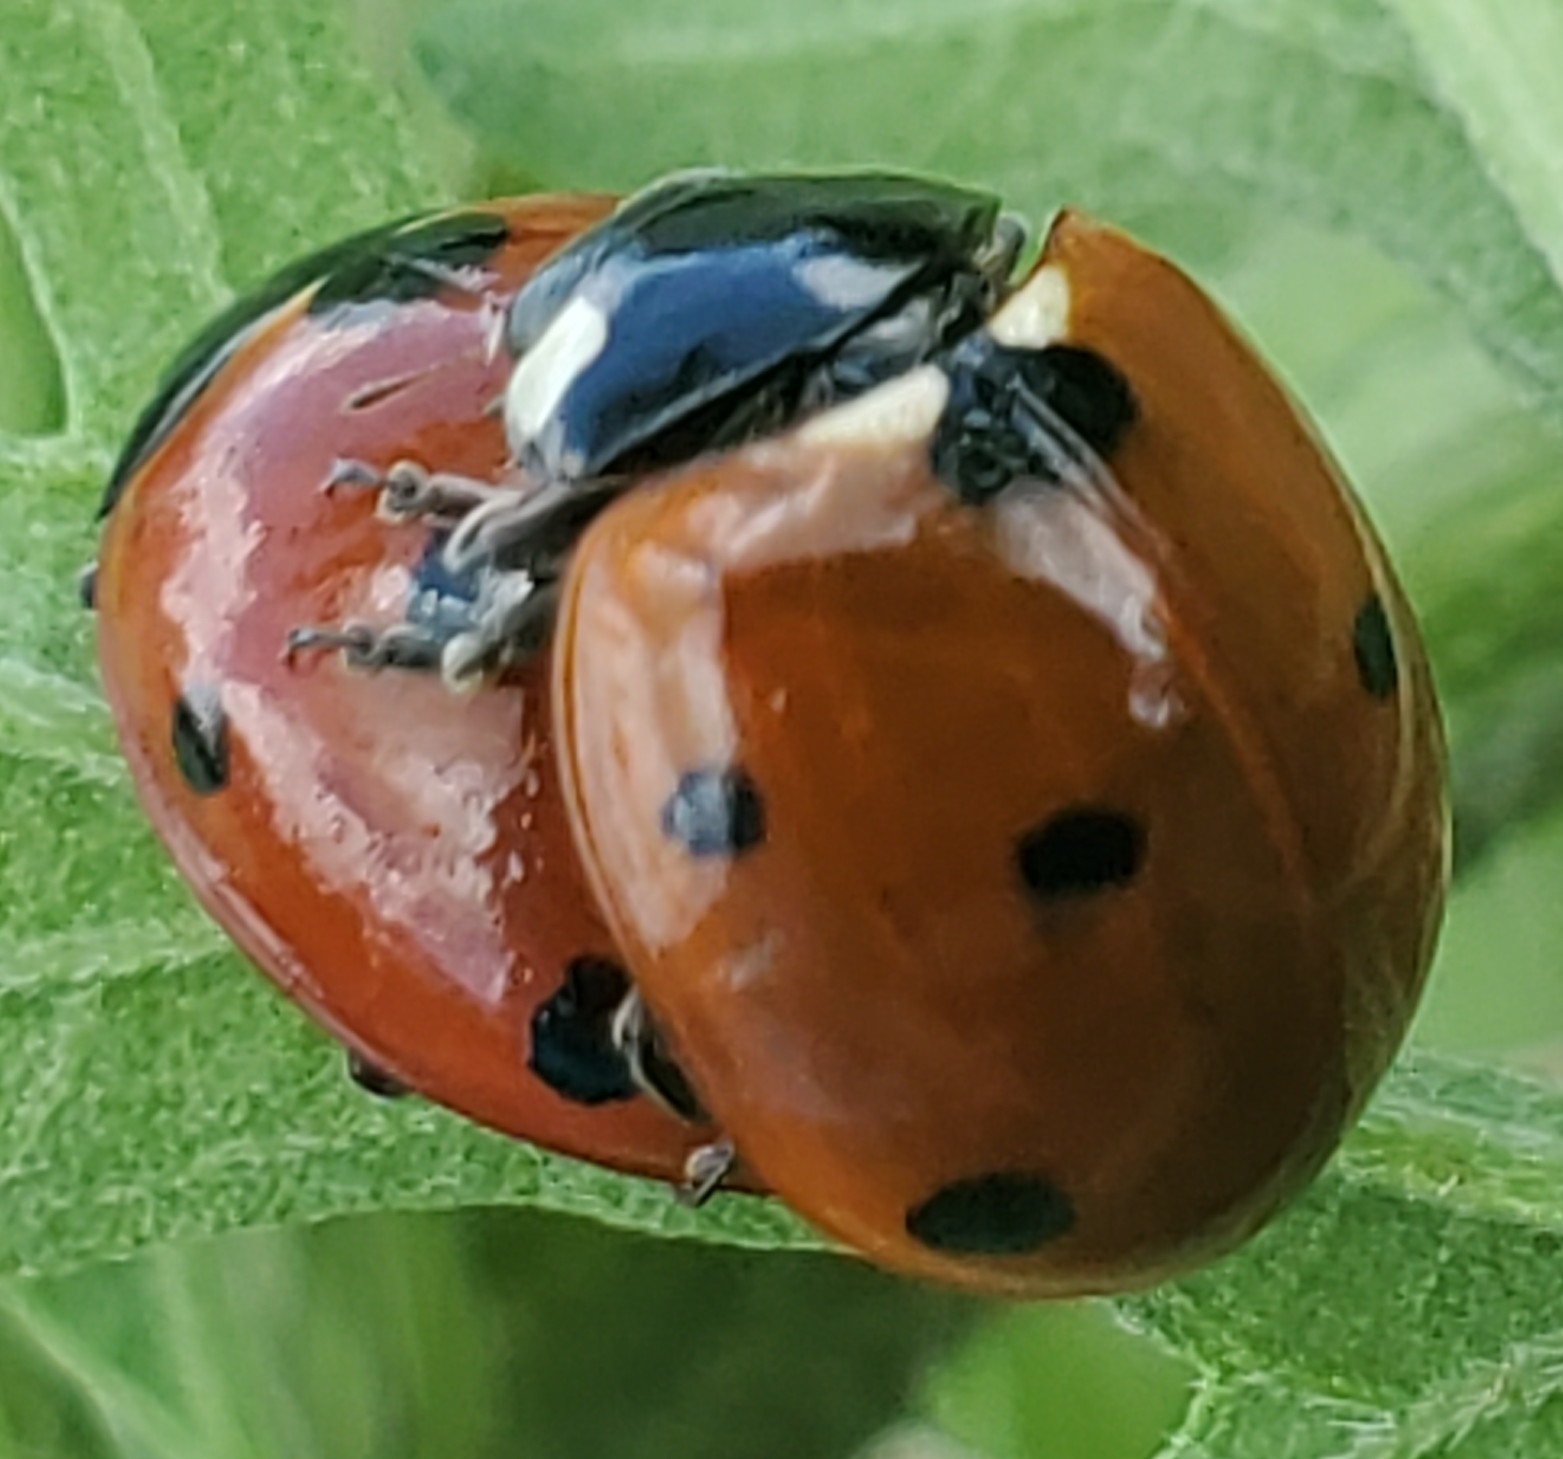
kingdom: Animalia
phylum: Arthropoda
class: Insecta
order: Coleoptera
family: Coccinellidae
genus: Coccinella
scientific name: Coccinella septempunctata
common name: Sevenspotted lady beetle
